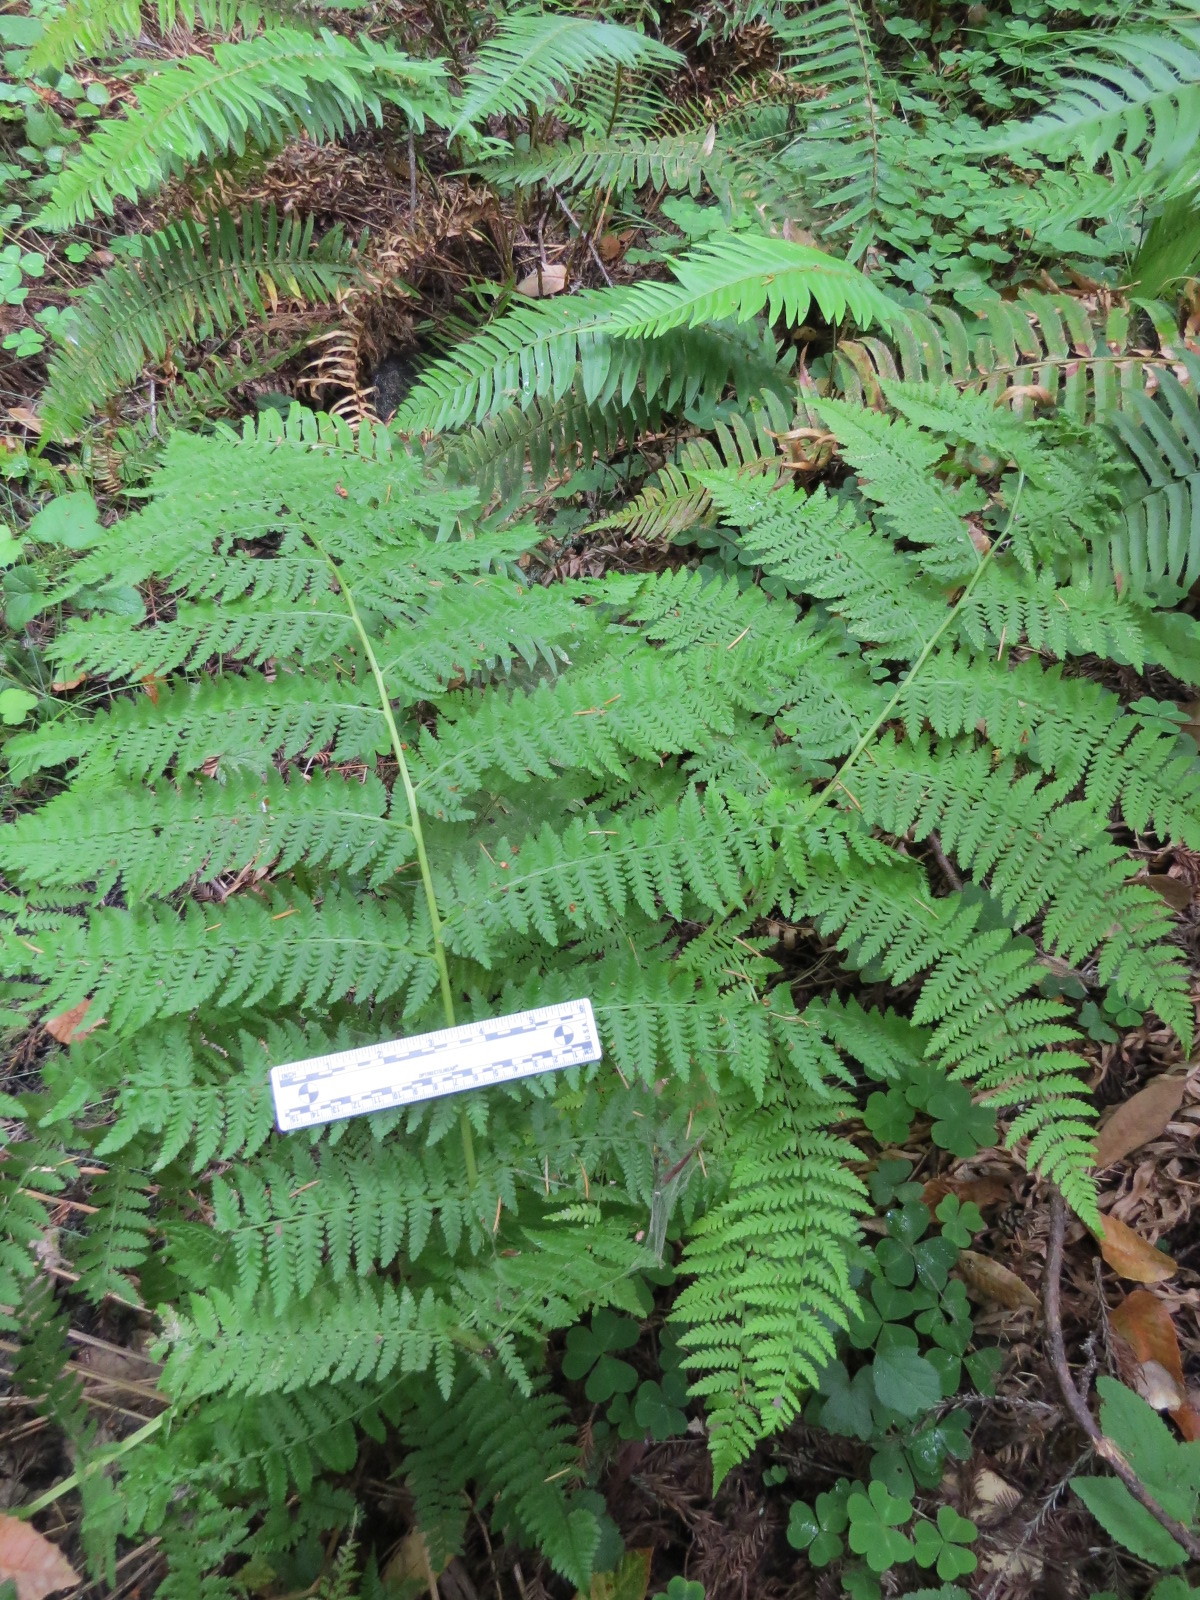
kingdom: Plantae
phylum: Tracheophyta
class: Polypodiopsida
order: Polypodiales
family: Athyriaceae
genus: Athyrium
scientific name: Athyrium filix-femina
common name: Lady fern
